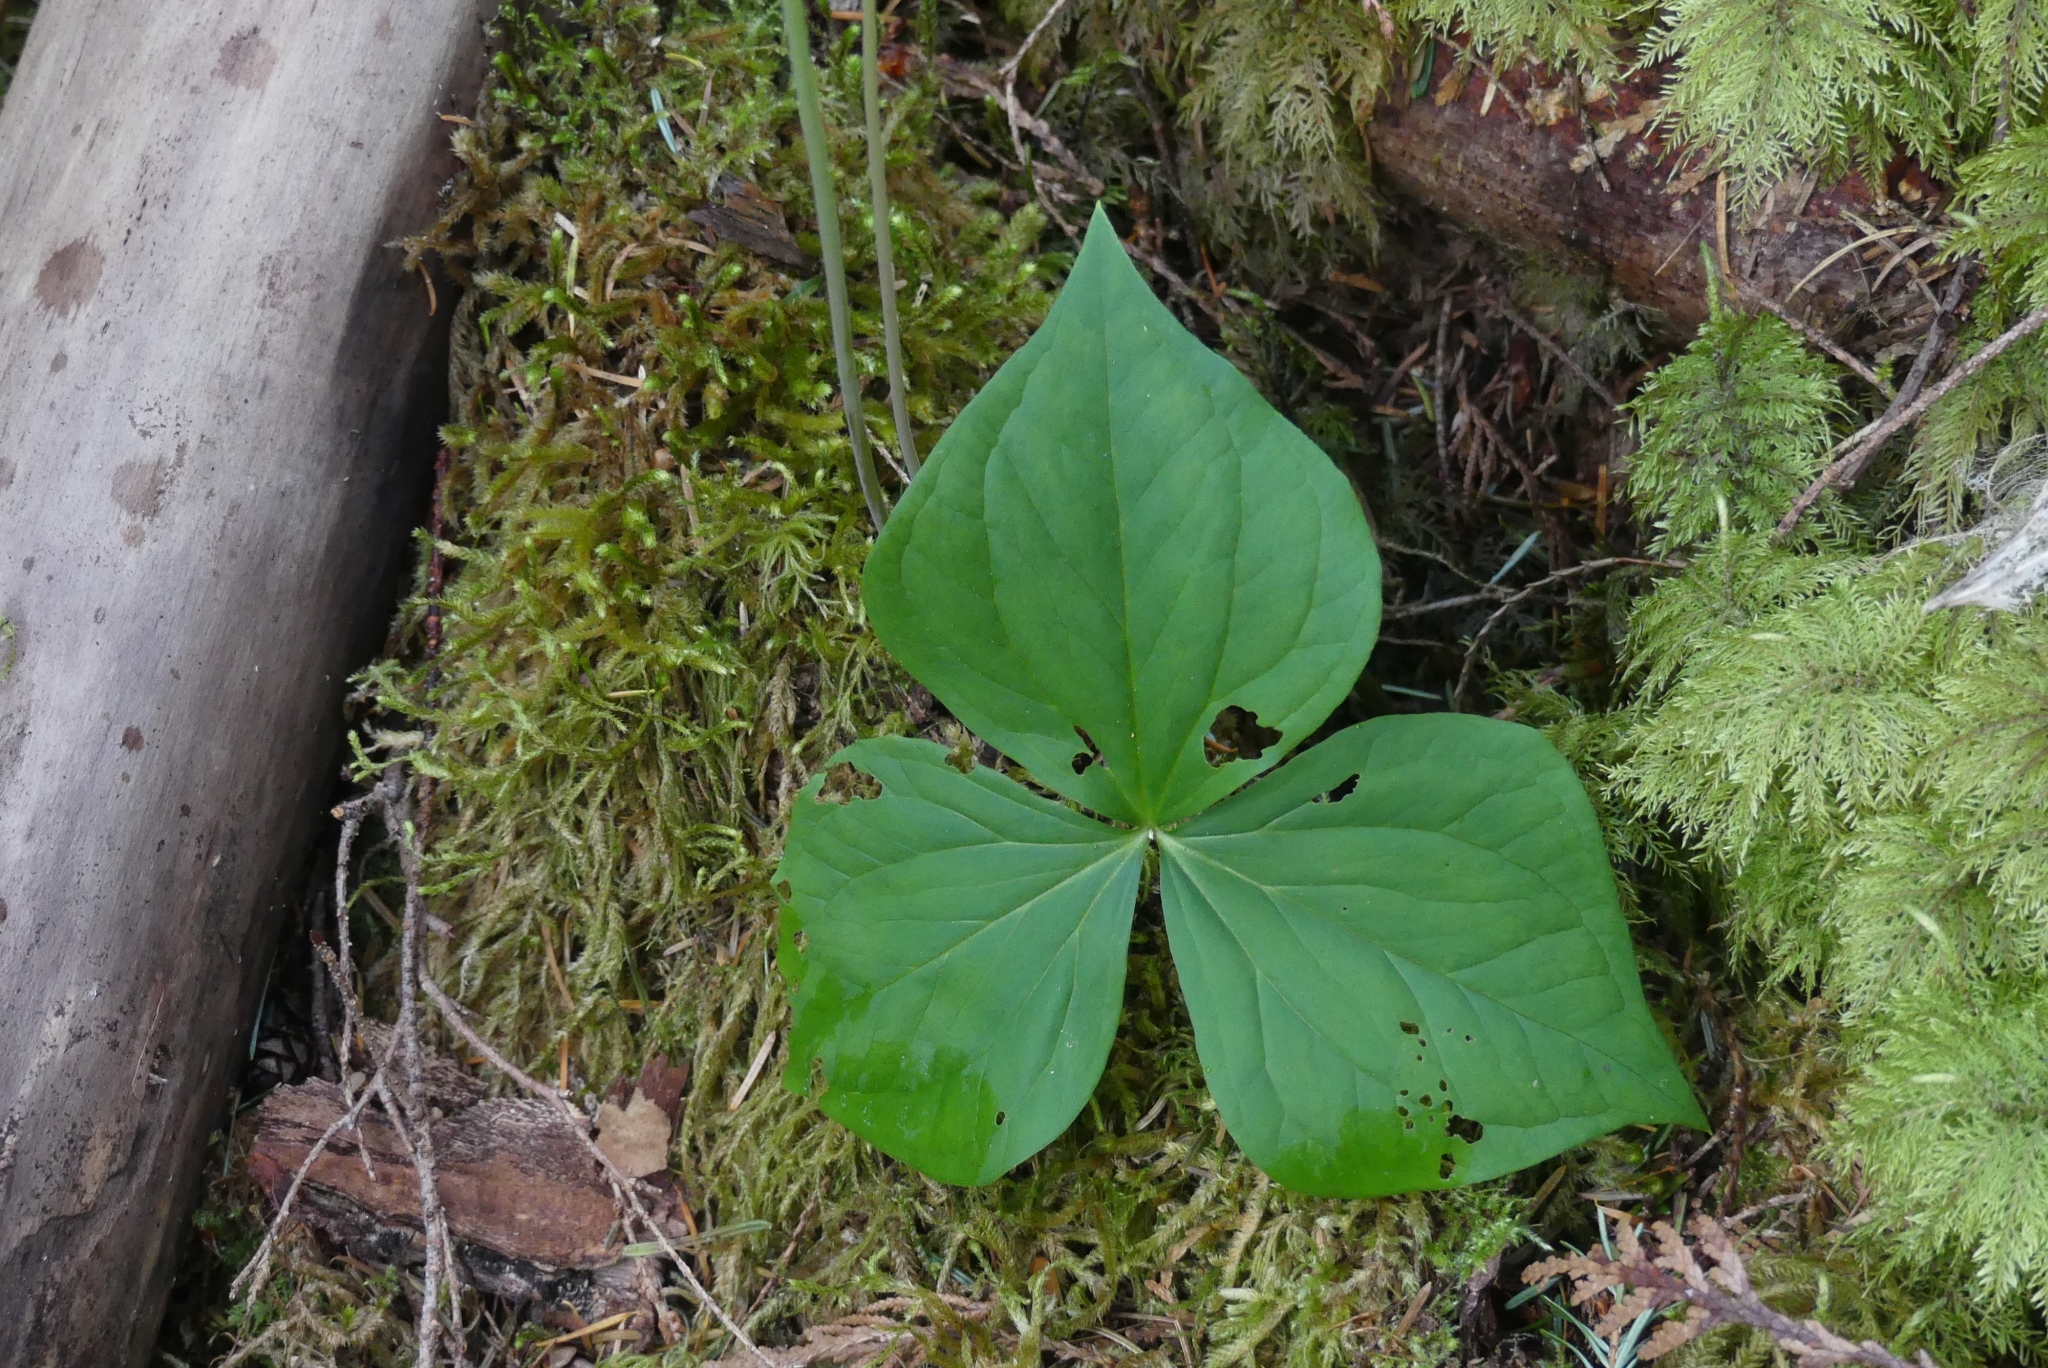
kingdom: Plantae
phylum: Tracheophyta
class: Liliopsida
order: Liliales
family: Melanthiaceae
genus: Trillium
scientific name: Trillium ovatum
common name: Pacific trillium
